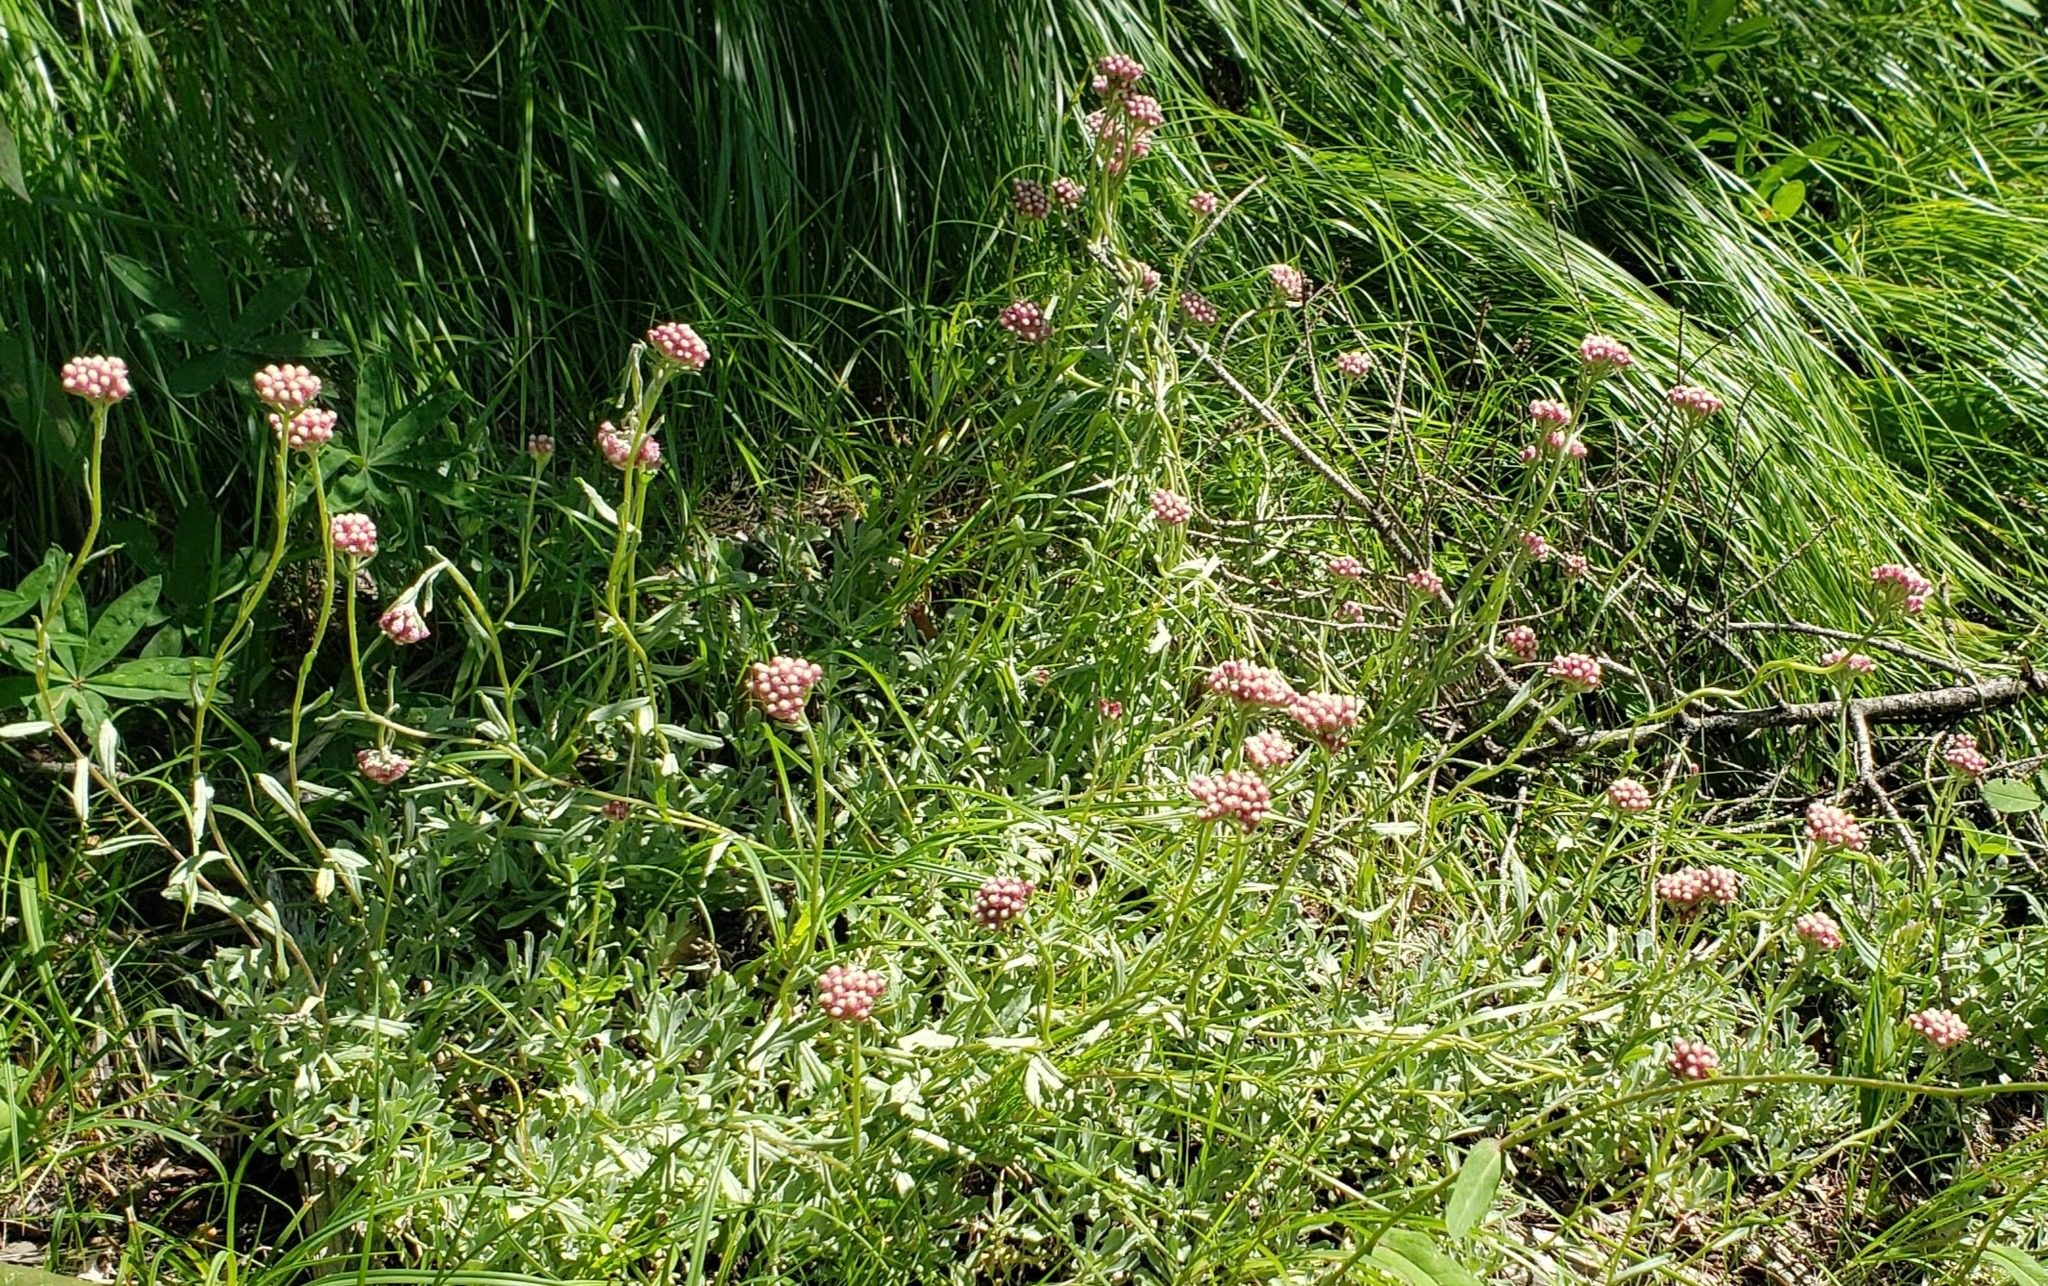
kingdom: Plantae
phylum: Tracheophyta
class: Magnoliopsida
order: Asterales
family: Asteraceae
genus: Antennaria
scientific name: Antennaria rosea
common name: Rosy pussytoes
